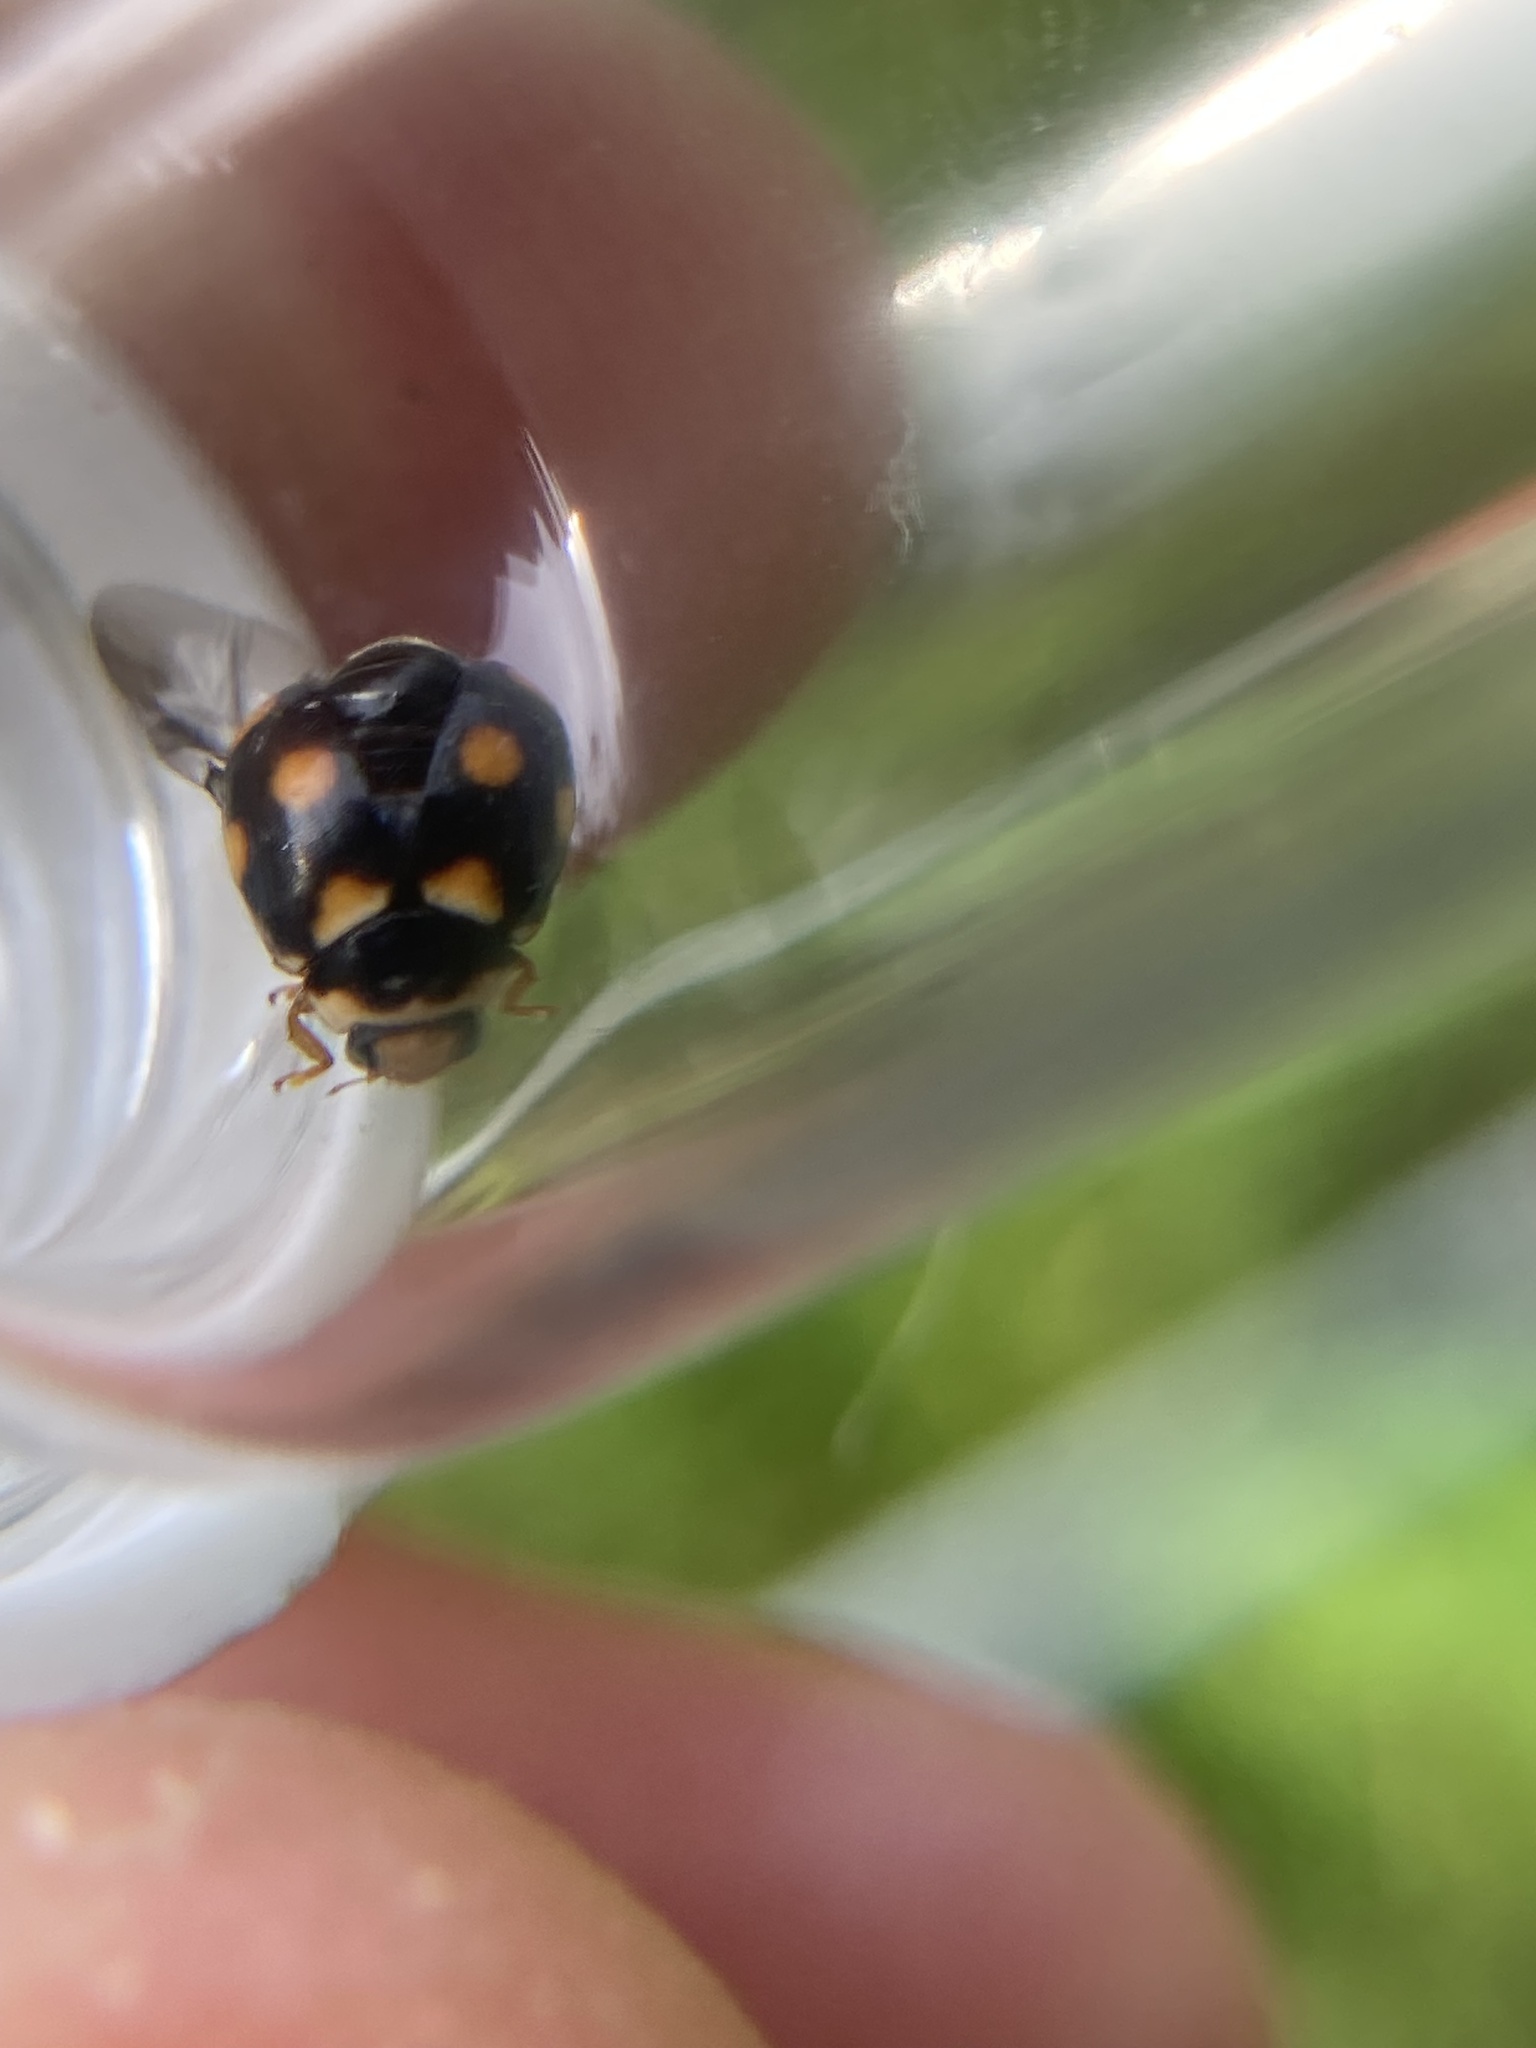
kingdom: Animalia
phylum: Arthropoda
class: Insecta
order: Coleoptera
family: Coccinellidae
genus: Brachiacantha
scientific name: Brachiacantha ursina
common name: Ursine spurleg lady beetle
